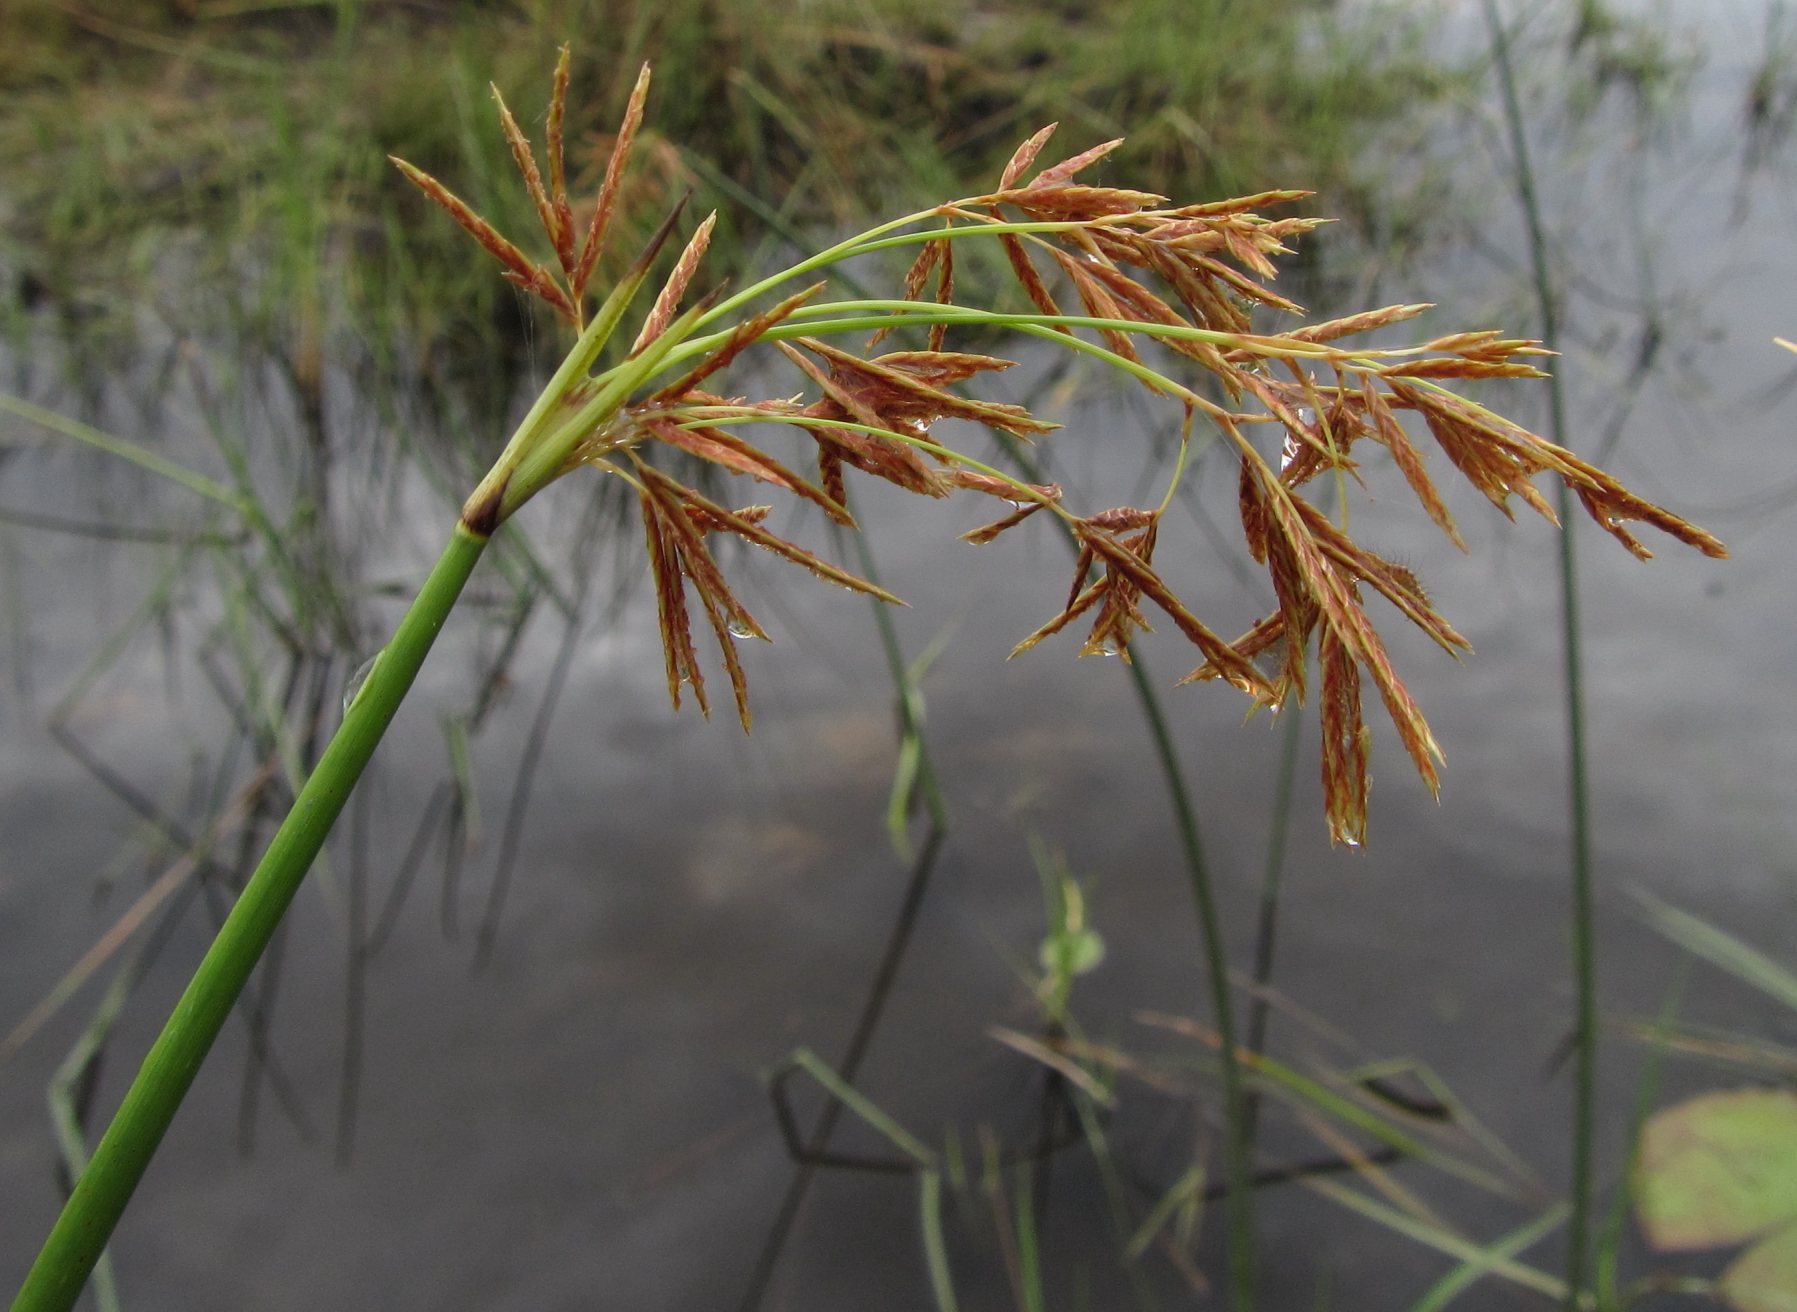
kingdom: Plantae
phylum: Tracheophyta
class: Liliopsida
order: Poales
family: Cyperaceae
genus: Cyperus
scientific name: Cyperus articulatus
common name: Jointed flatsedge
